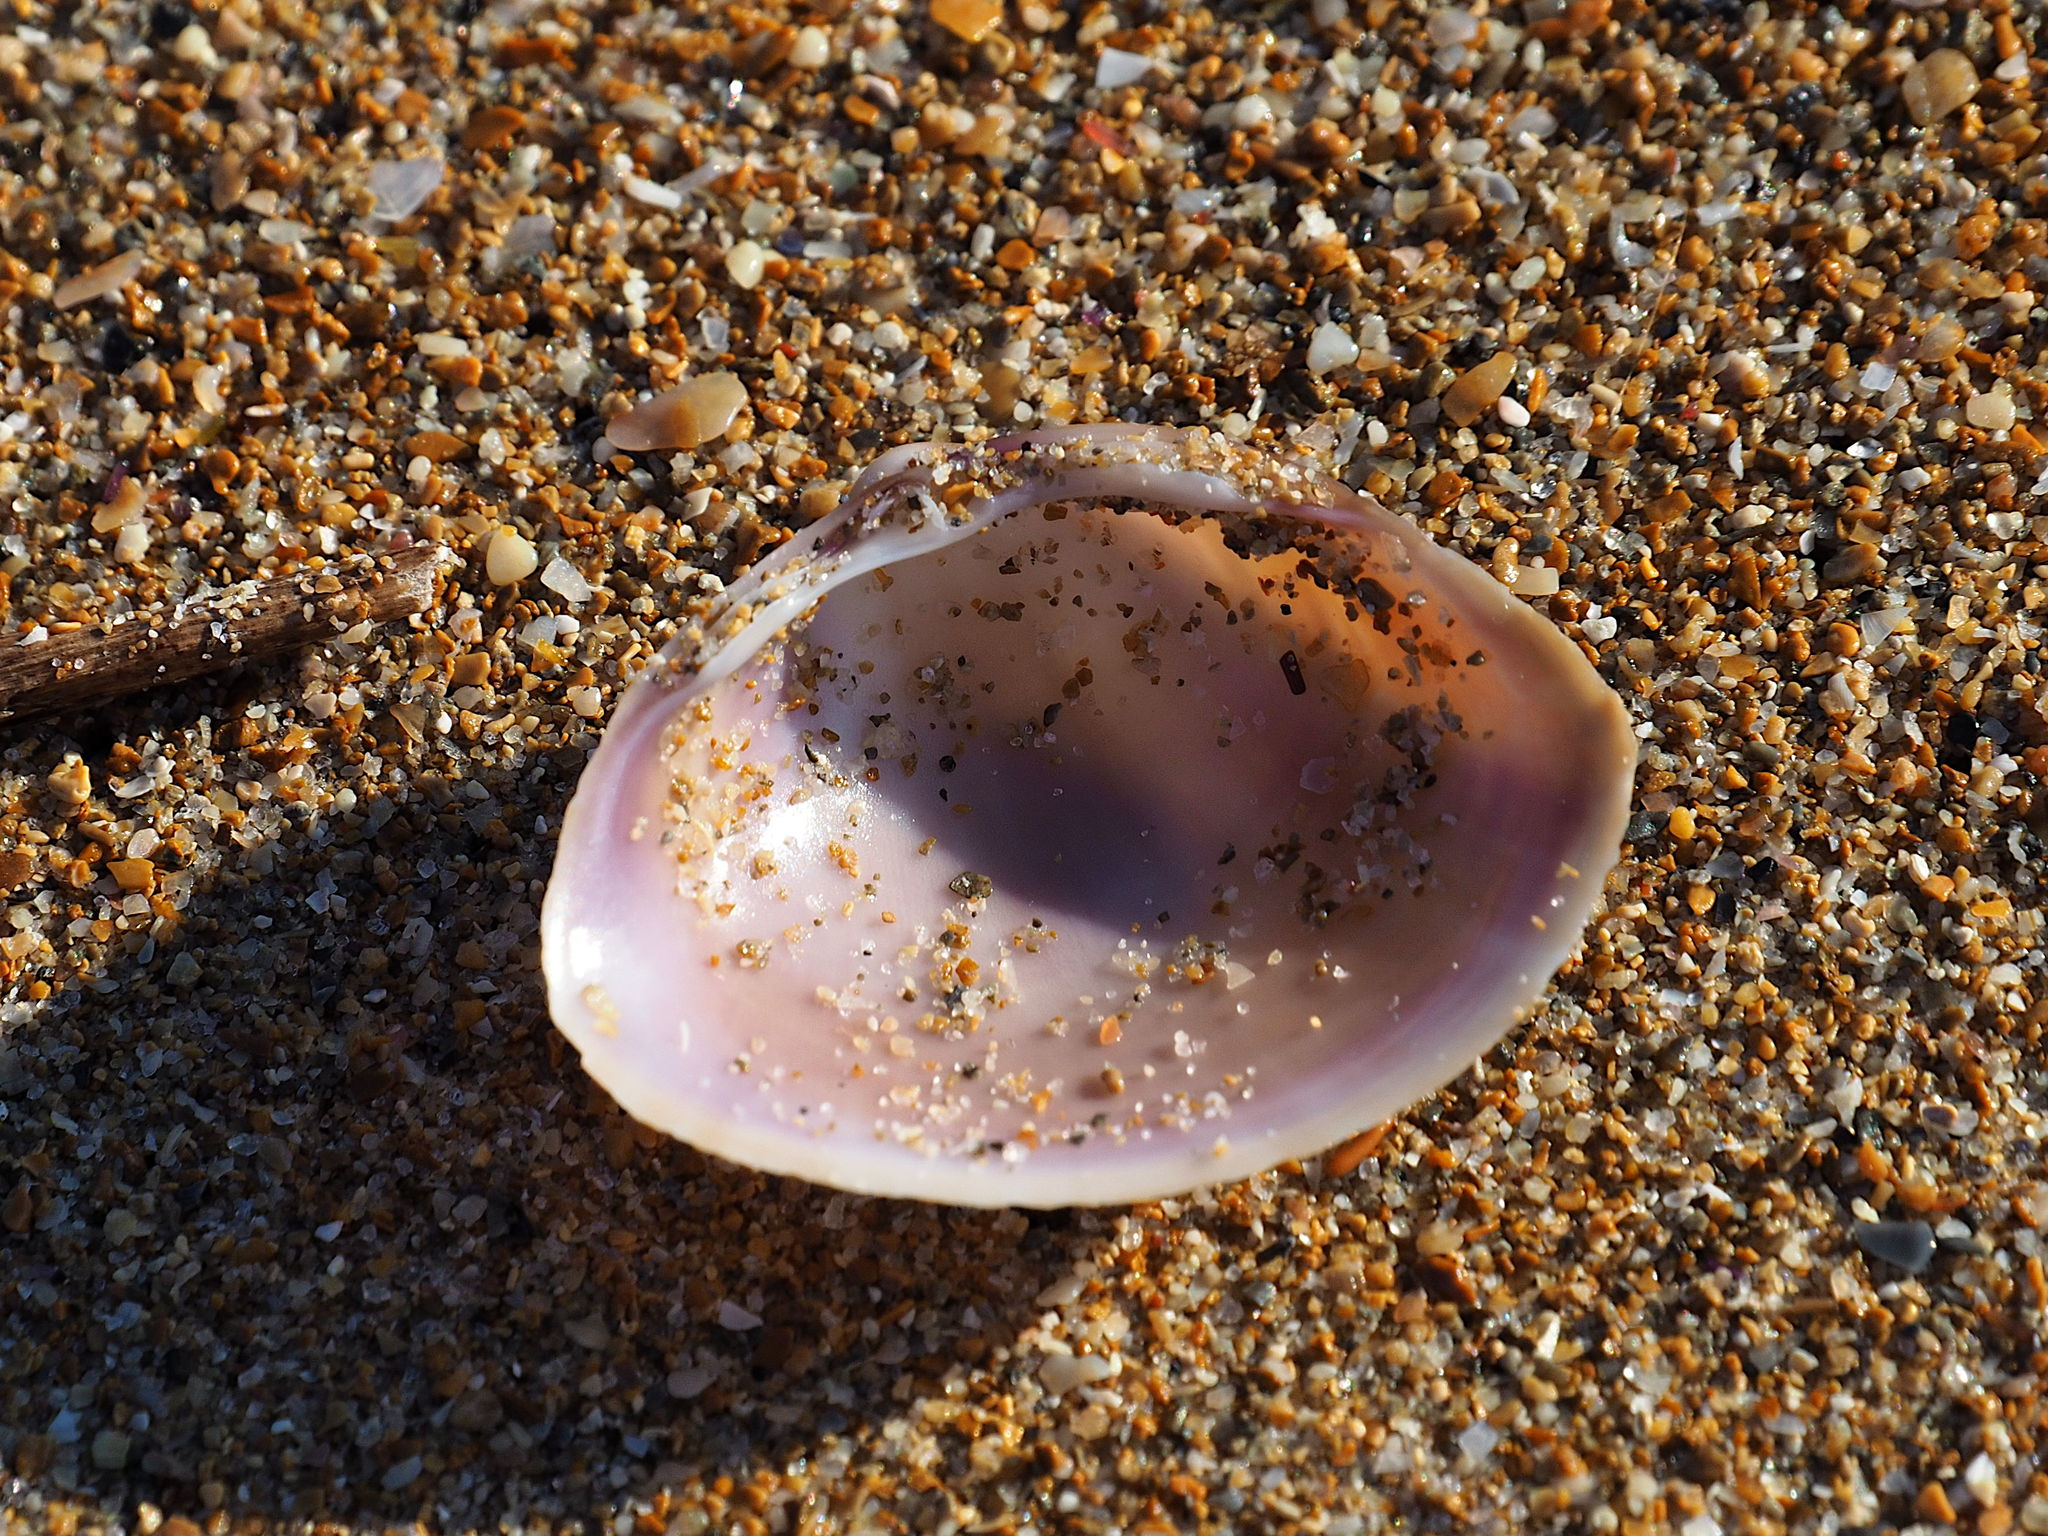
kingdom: Animalia
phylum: Mollusca
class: Bivalvia
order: Venerida
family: Mactridae
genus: Mactra
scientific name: Mactra stultorum
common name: Rayed trough shell
